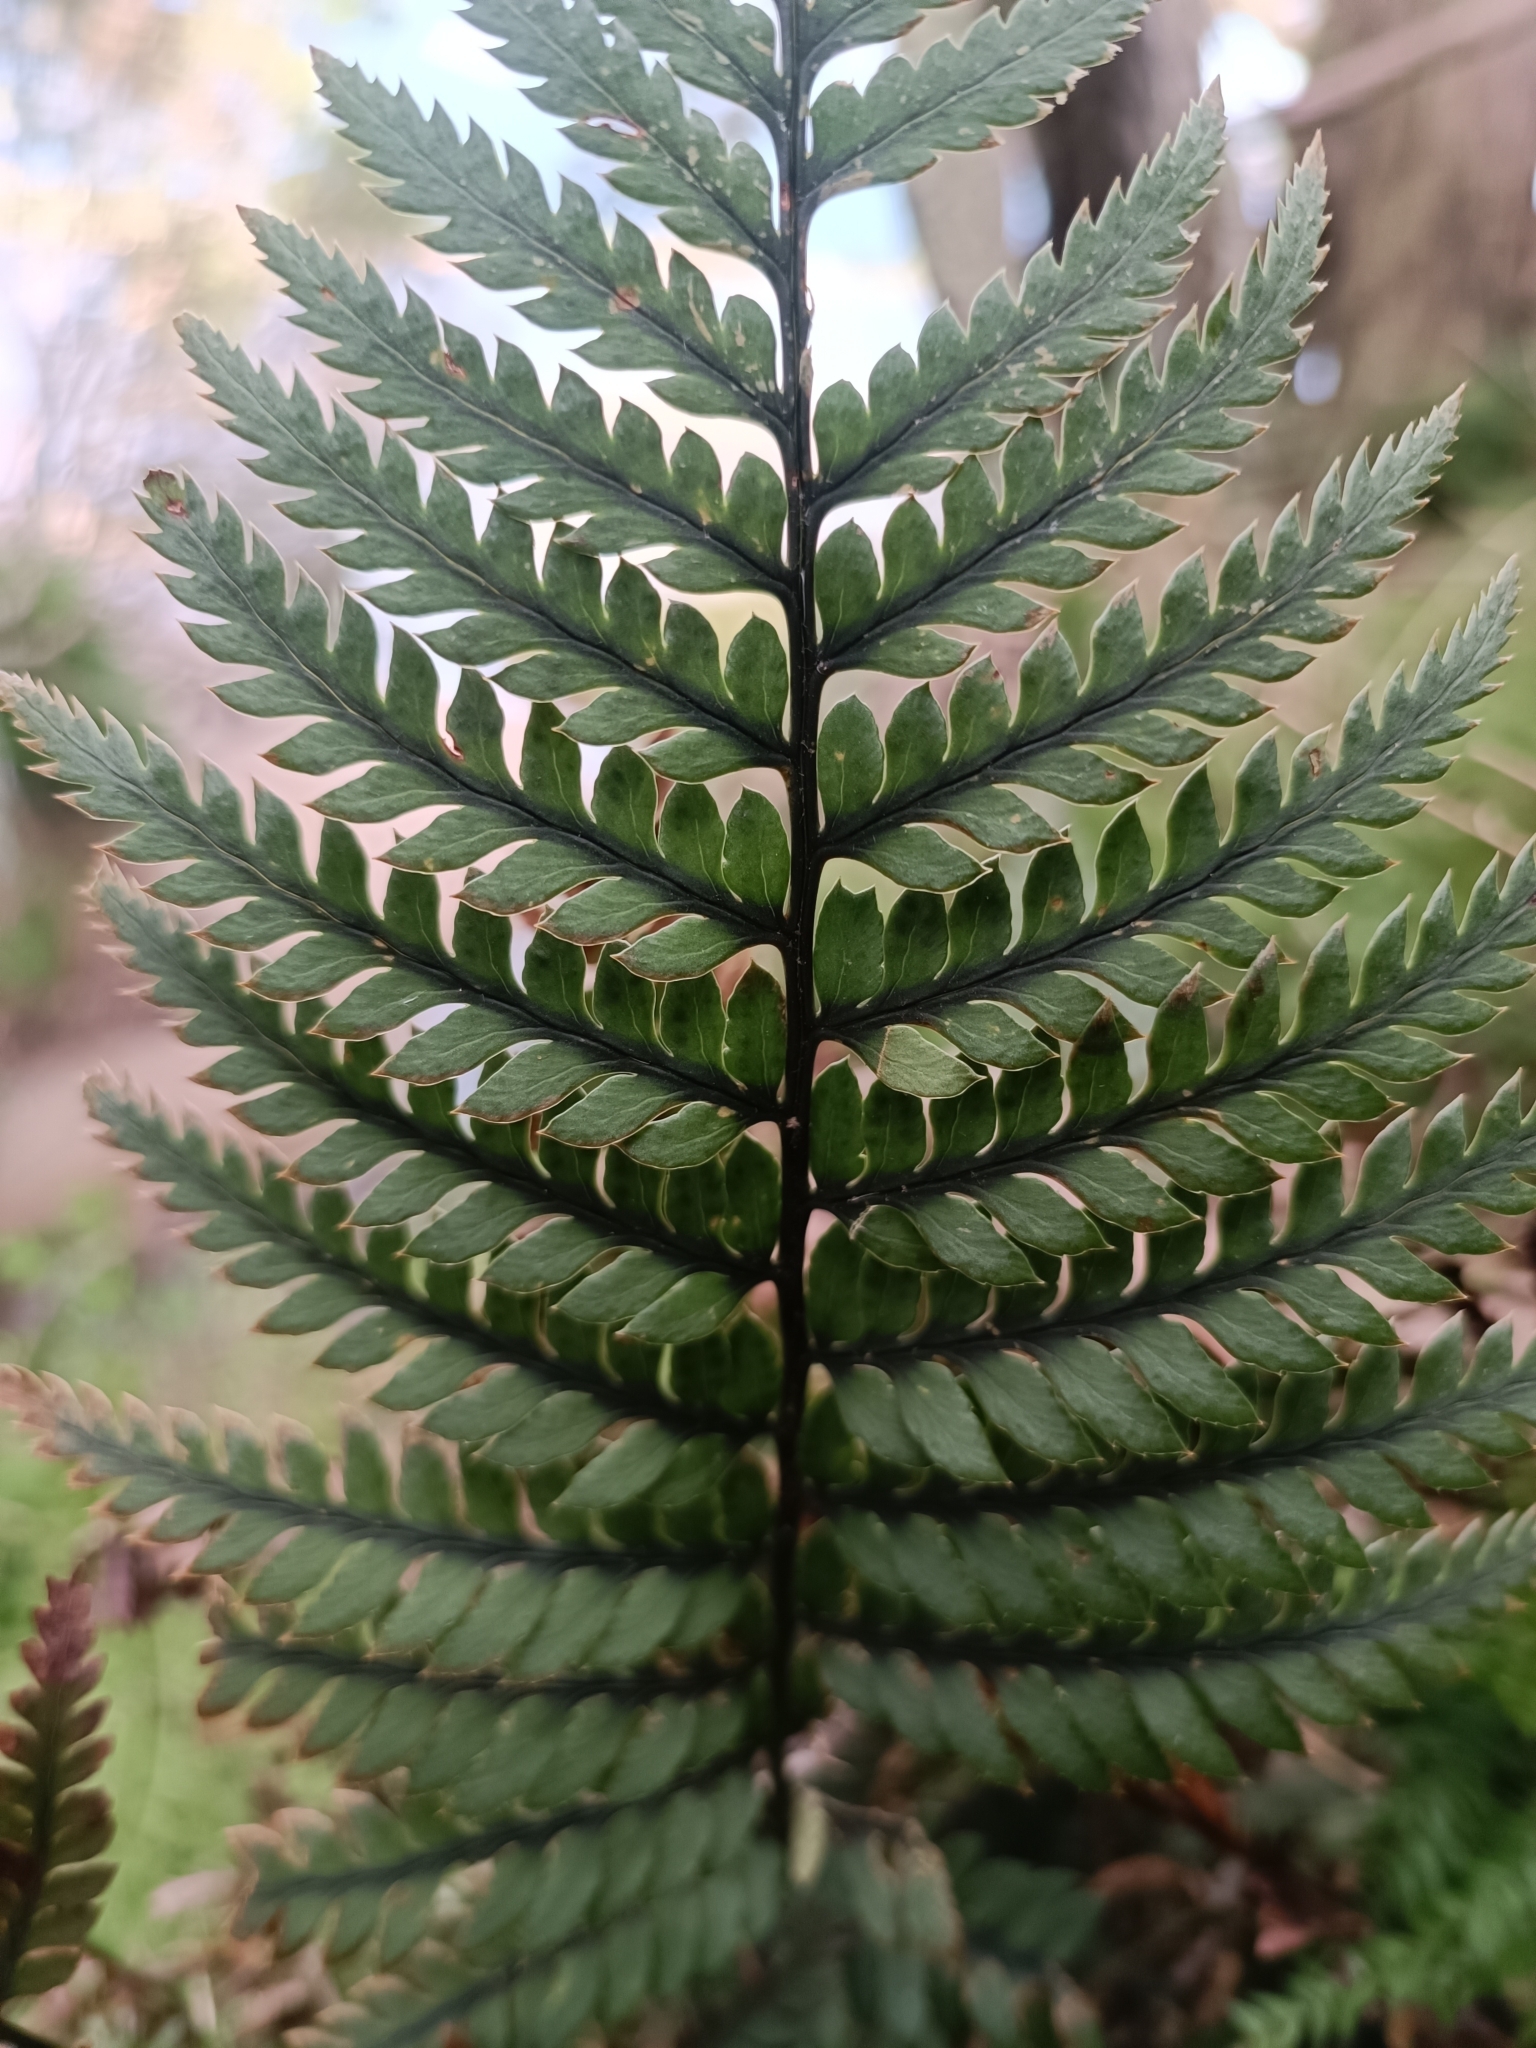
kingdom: Plantae
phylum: Tracheophyta
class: Polypodiopsida
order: Polypodiales
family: Dryopteridaceae
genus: Polystichum
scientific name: Polystichum neozelandicum
